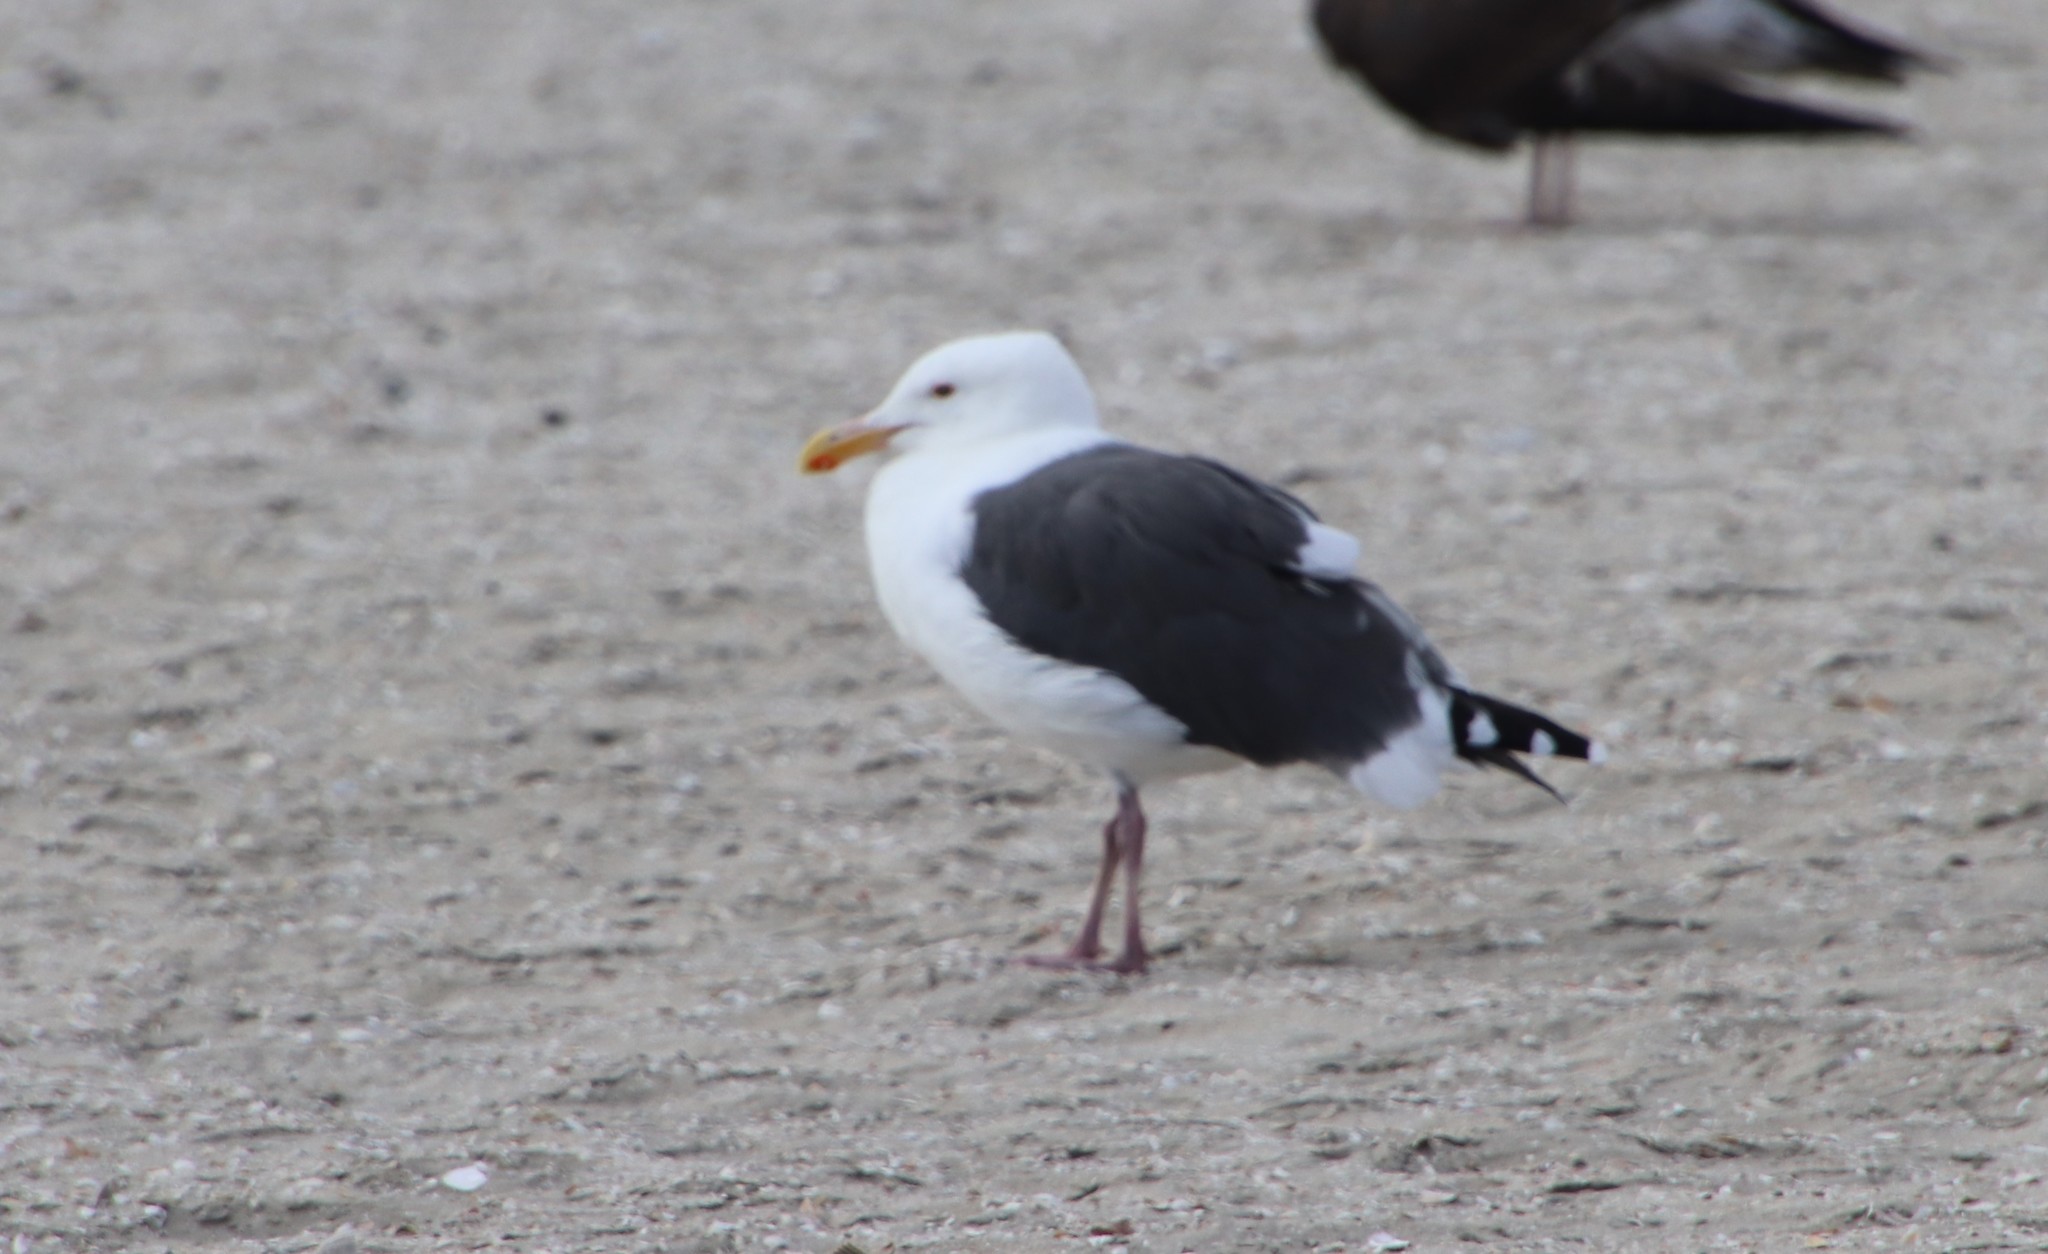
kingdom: Animalia
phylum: Chordata
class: Aves
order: Charadriiformes
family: Laridae
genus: Larus
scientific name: Larus occidentalis
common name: Western gull
